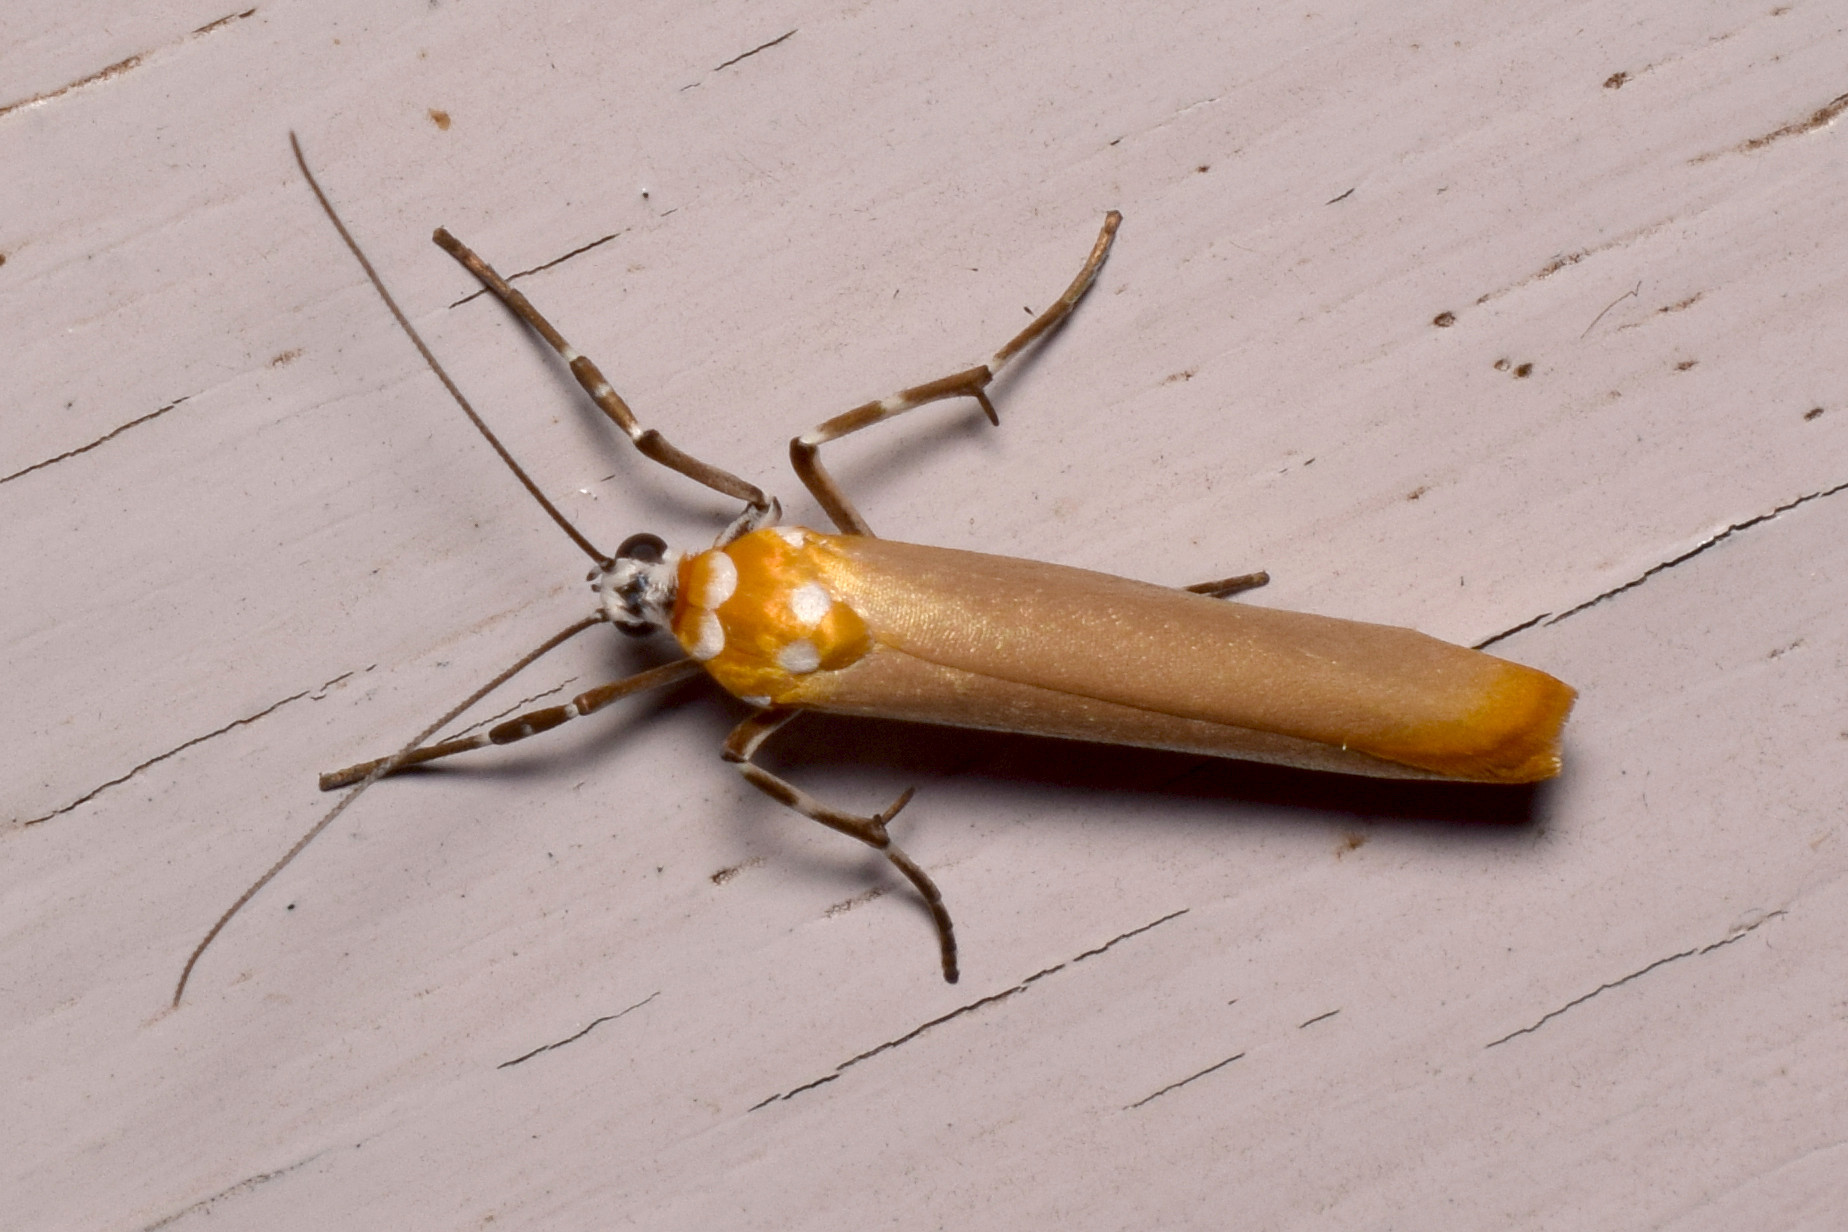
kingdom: Animalia
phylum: Arthropoda
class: Insecta
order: Lepidoptera
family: Attevidae
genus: Atteva
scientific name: Atteva subaurata
